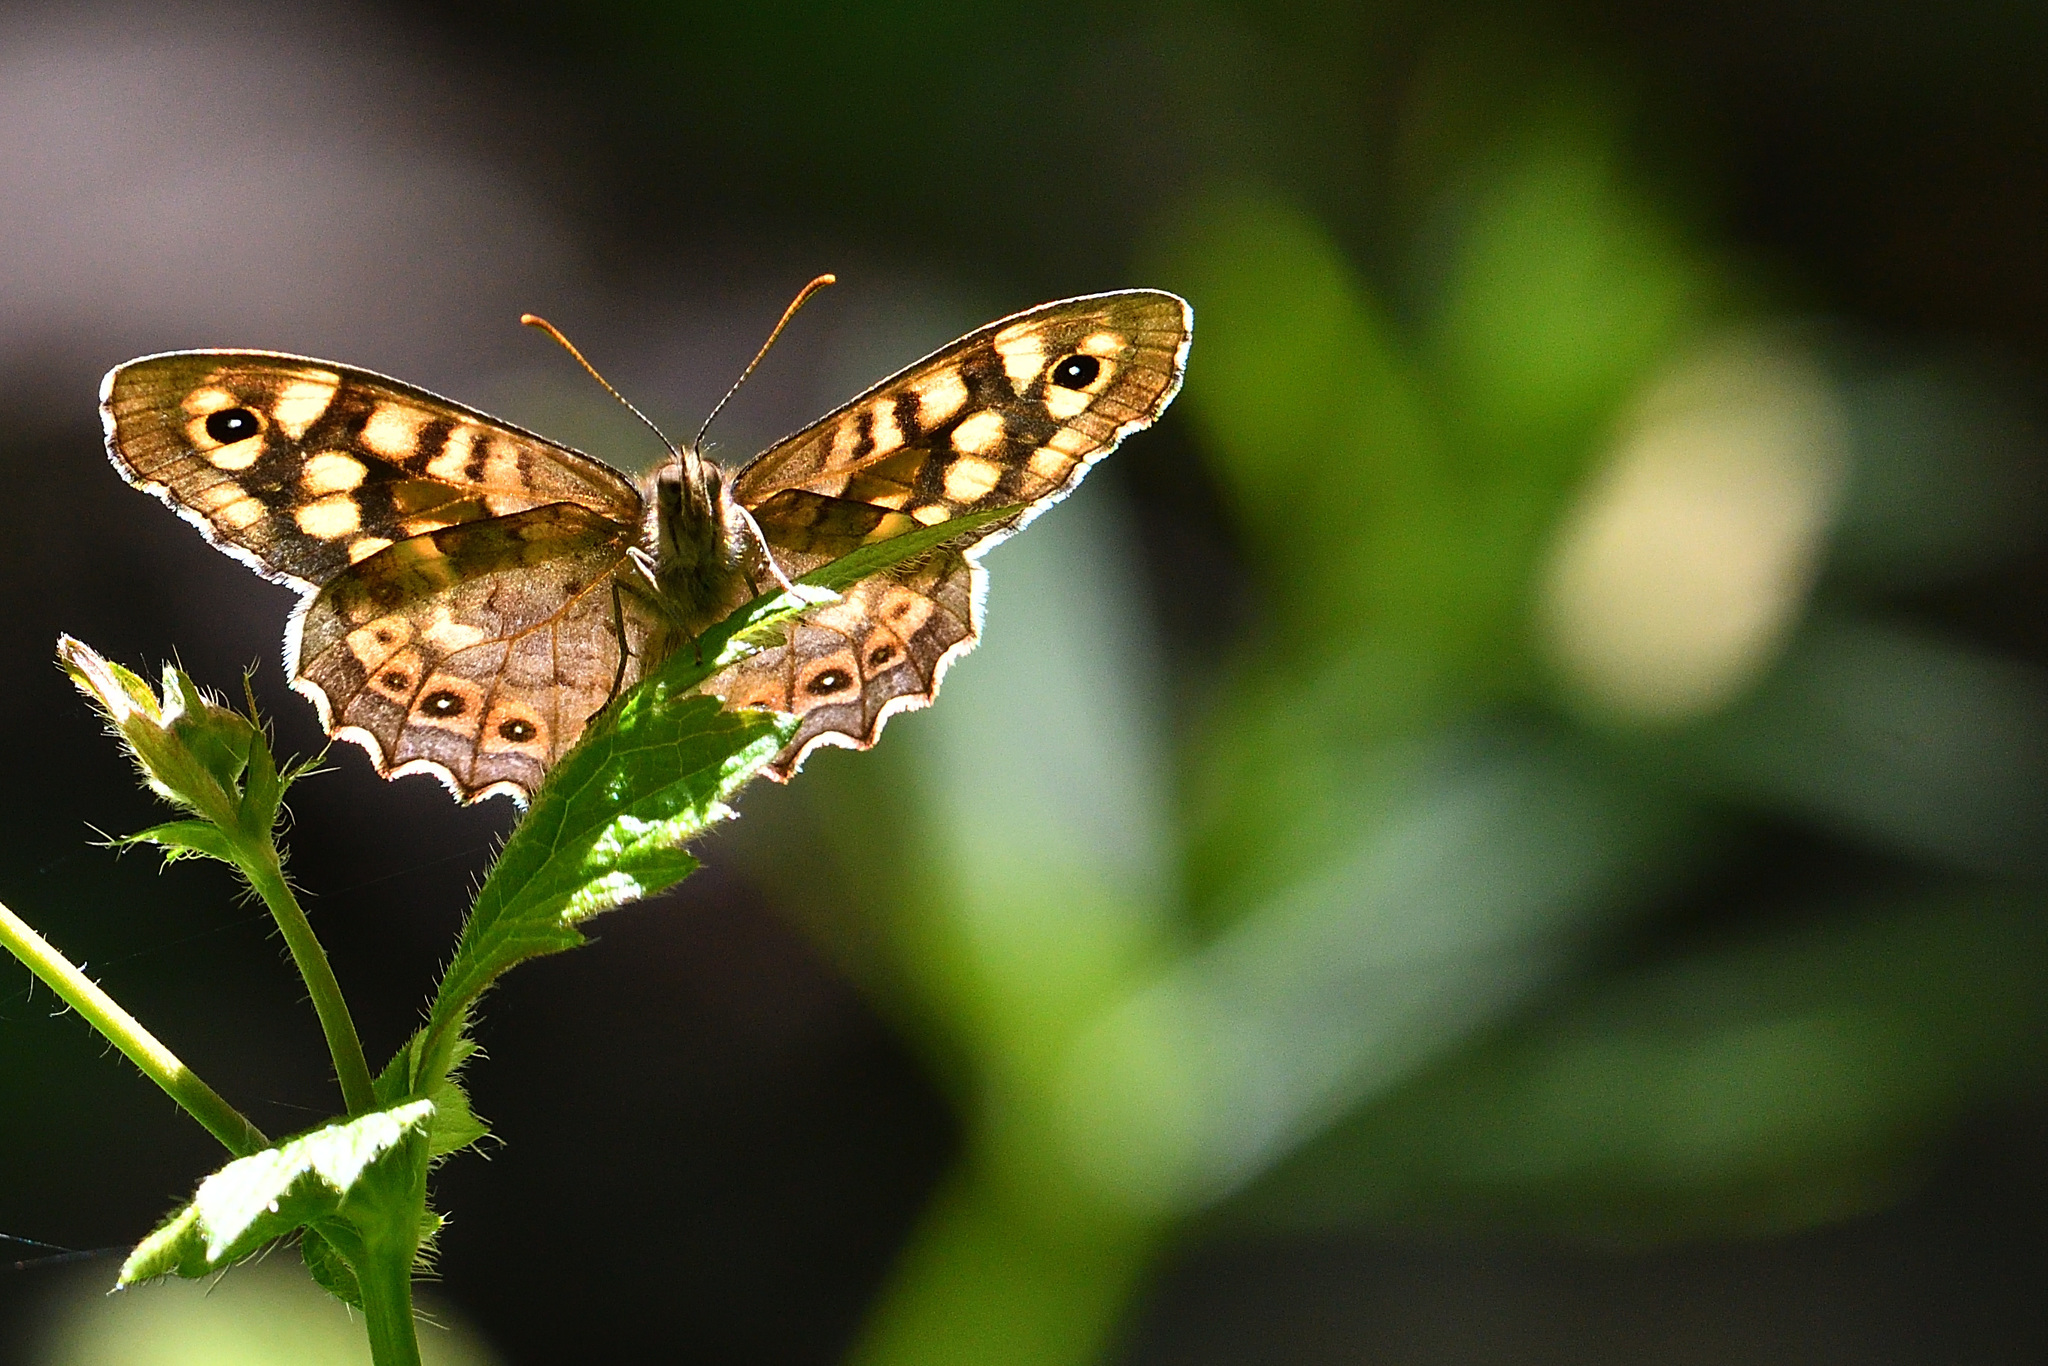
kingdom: Animalia
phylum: Arthropoda
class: Insecta
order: Lepidoptera
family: Nymphalidae
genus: Pararge
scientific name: Pararge aegeria
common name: Speckled wood
